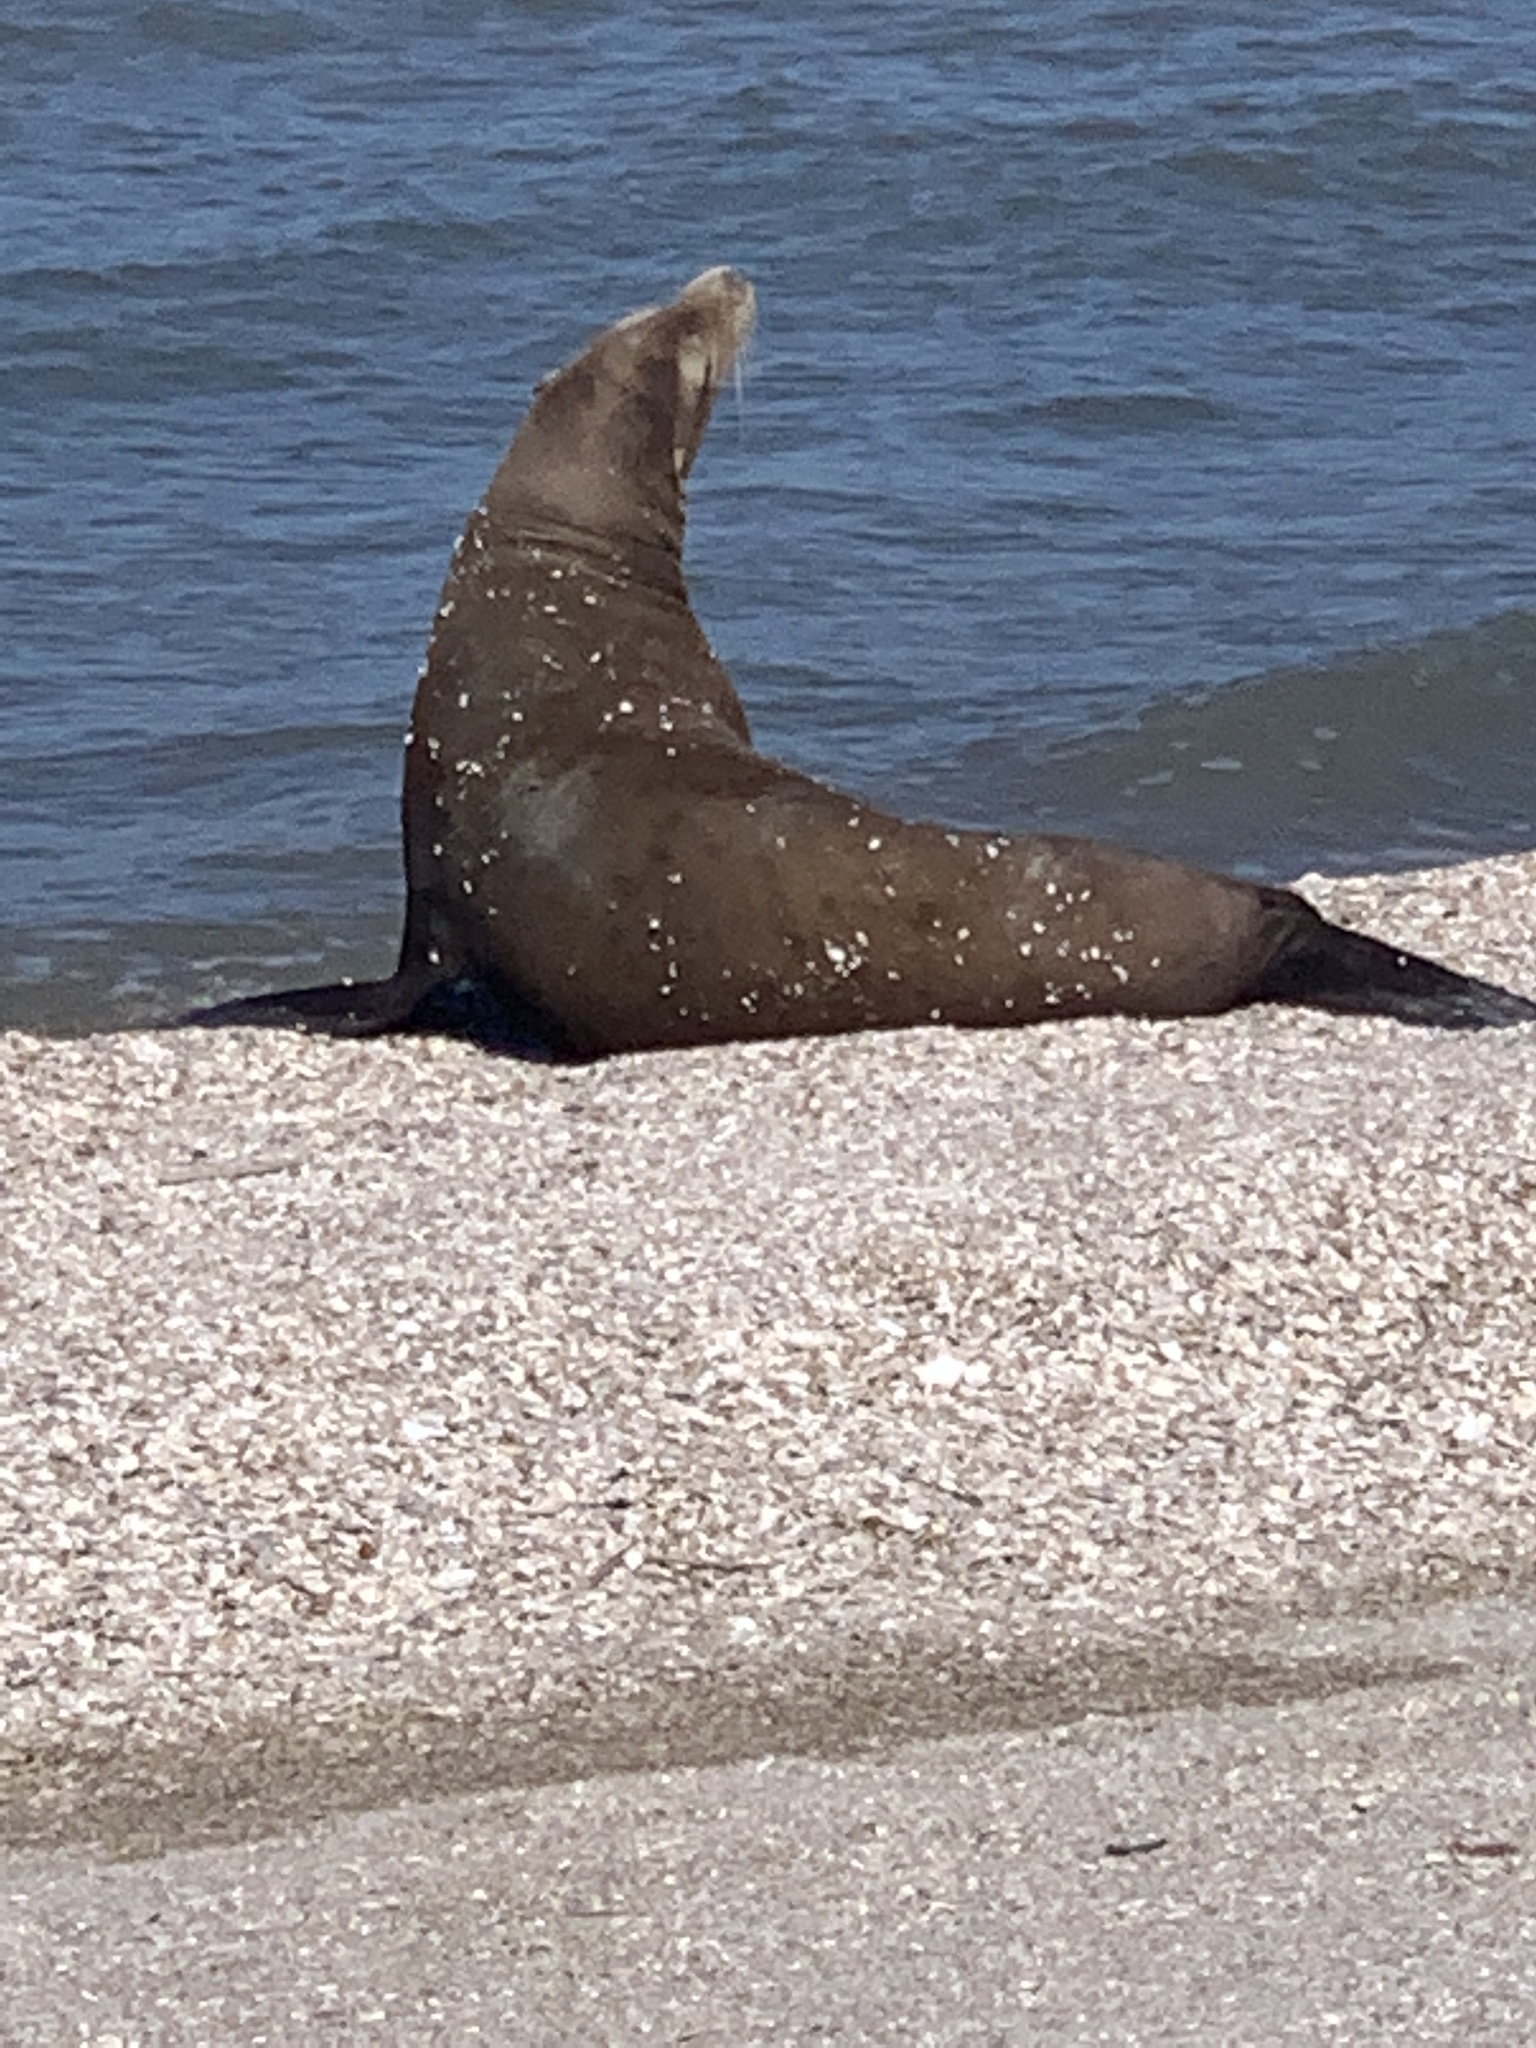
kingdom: Animalia
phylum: Chordata
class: Mammalia
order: Carnivora
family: Otariidae
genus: Zalophus
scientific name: Zalophus californianus
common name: California sea lion
